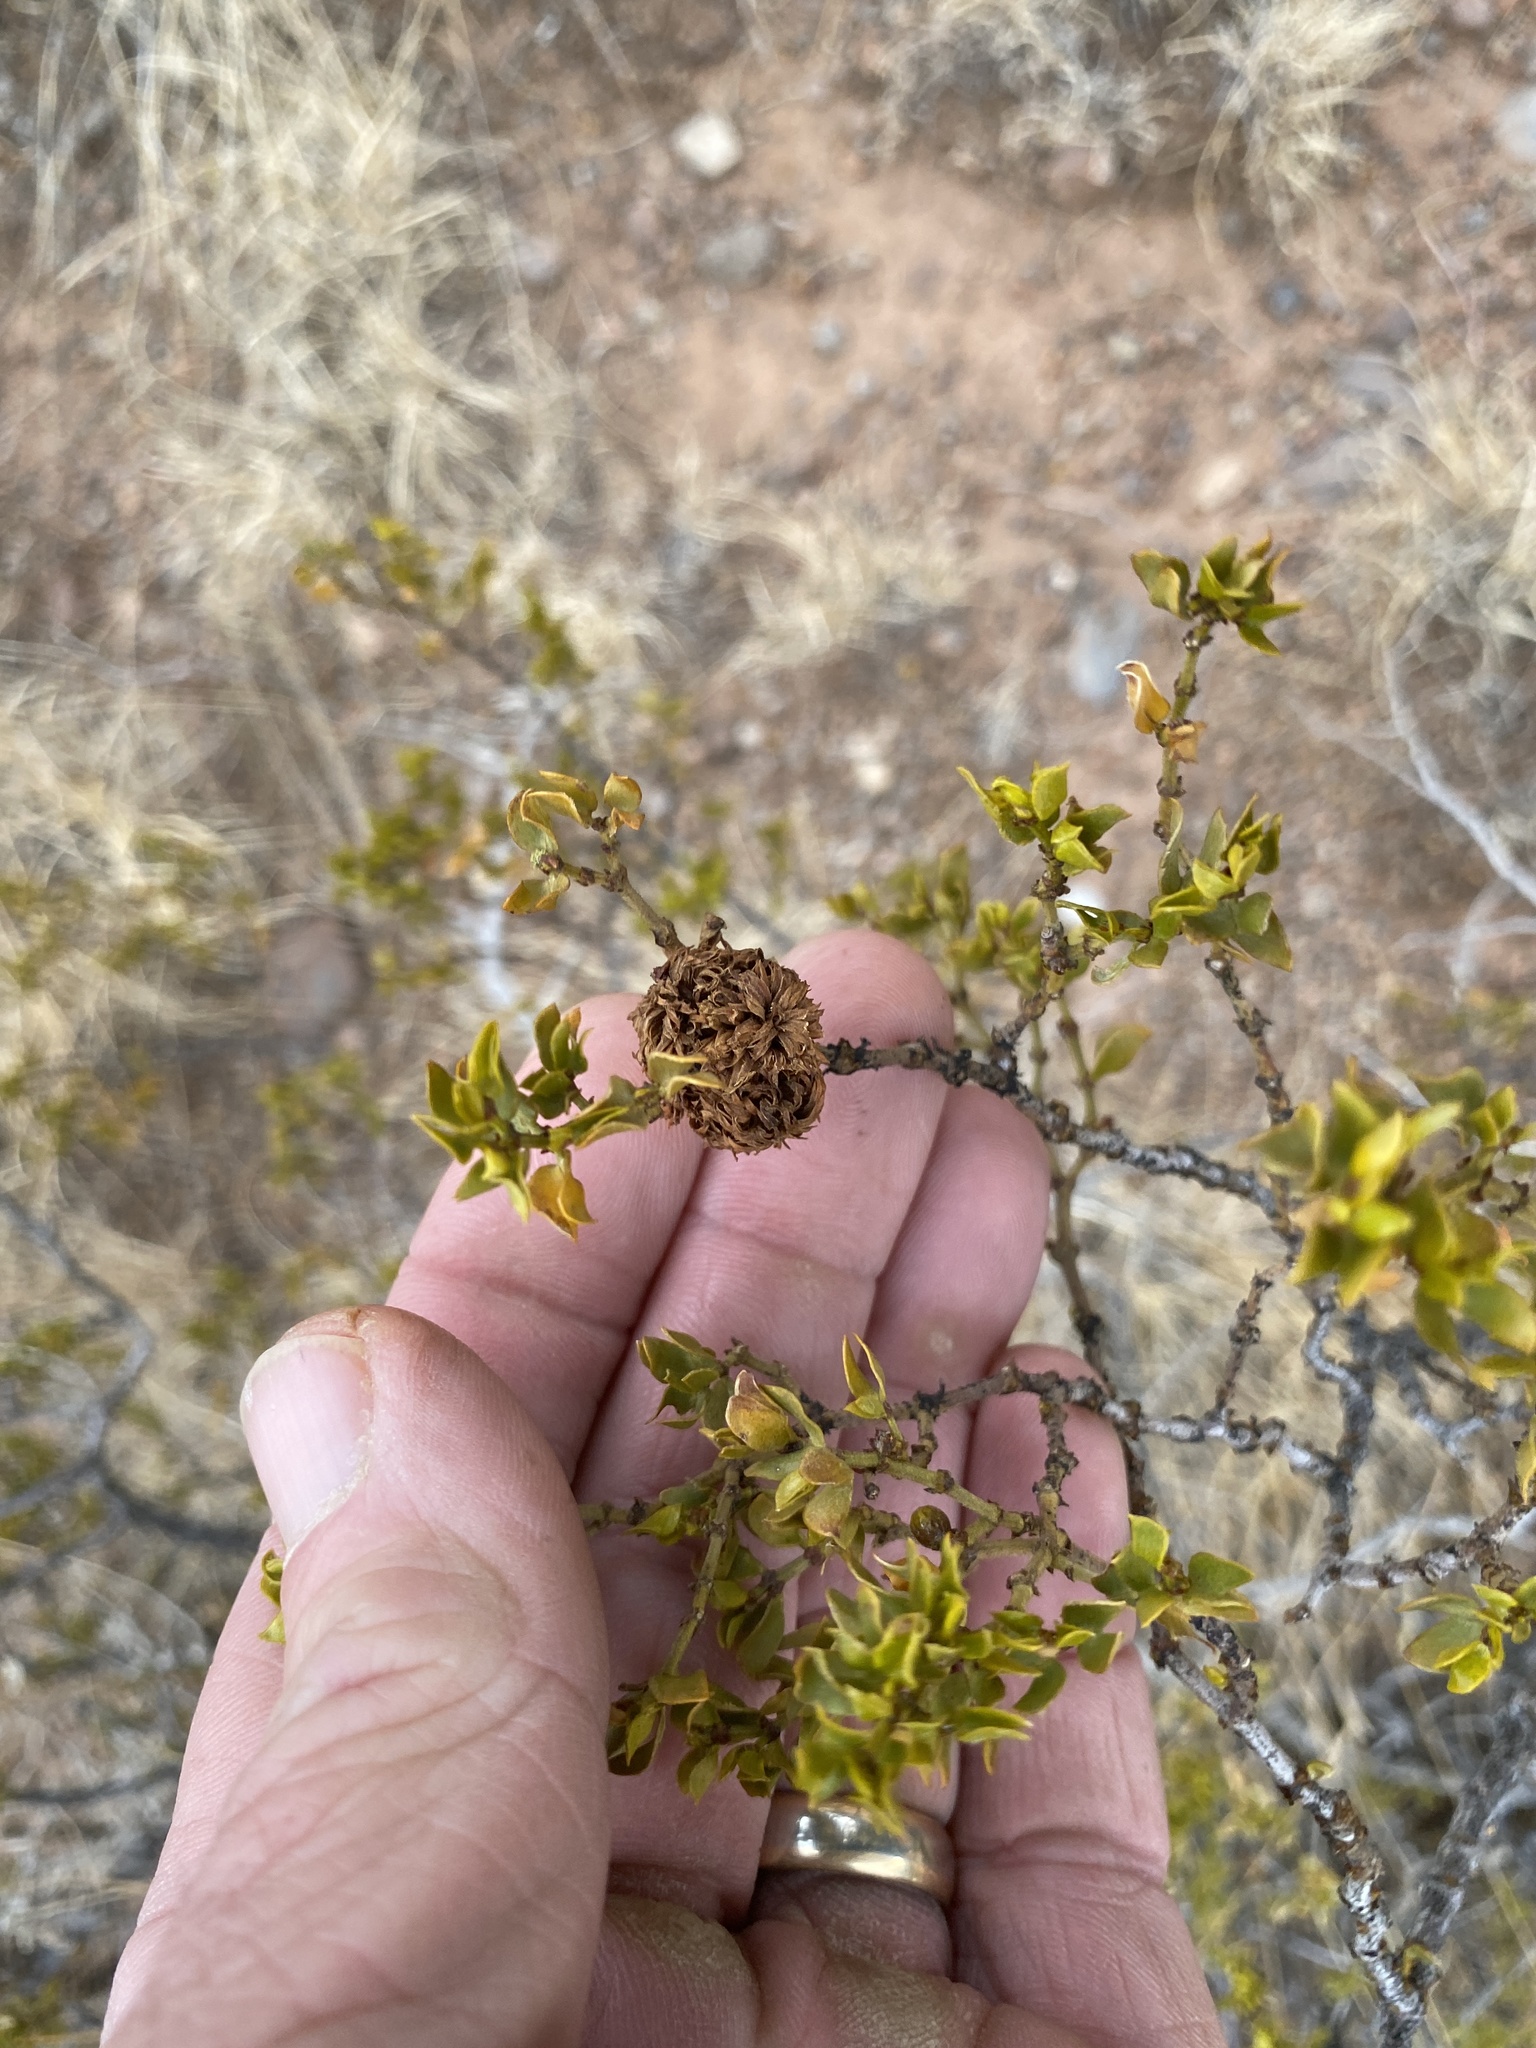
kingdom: Animalia
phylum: Arthropoda
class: Insecta
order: Diptera
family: Cecidomyiidae
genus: Asphondylia
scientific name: Asphondylia auripila
